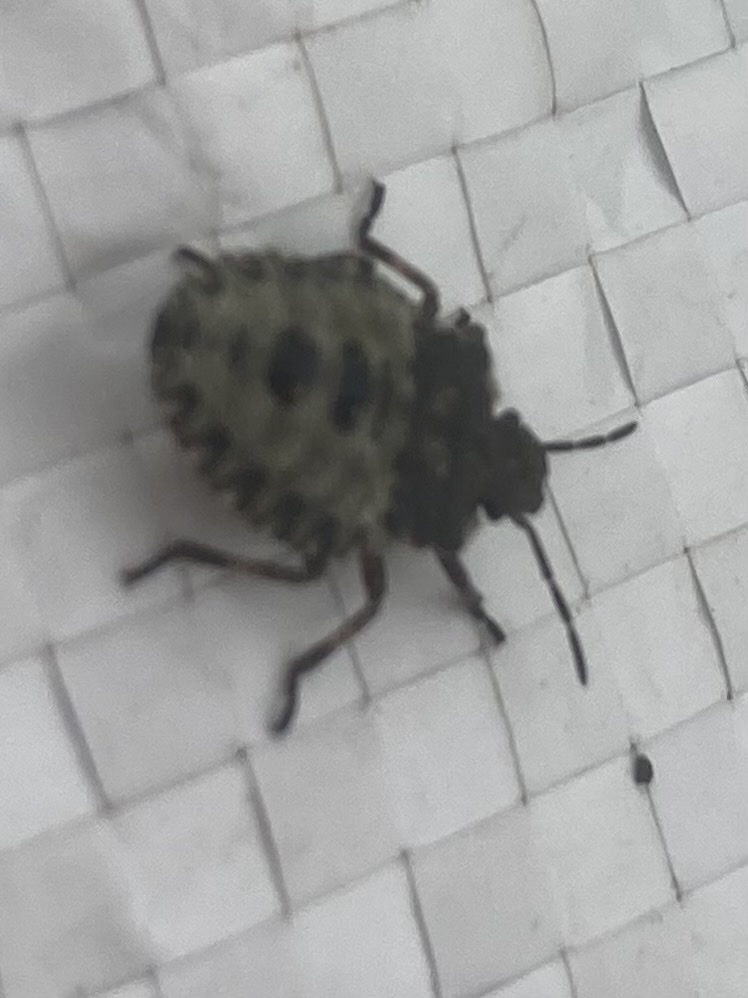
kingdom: Animalia
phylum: Arthropoda
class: Insecta
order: Hemiptera
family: Pentatomidae
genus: Pentatoma
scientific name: Pentatoma rufipes
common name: Forest bug
